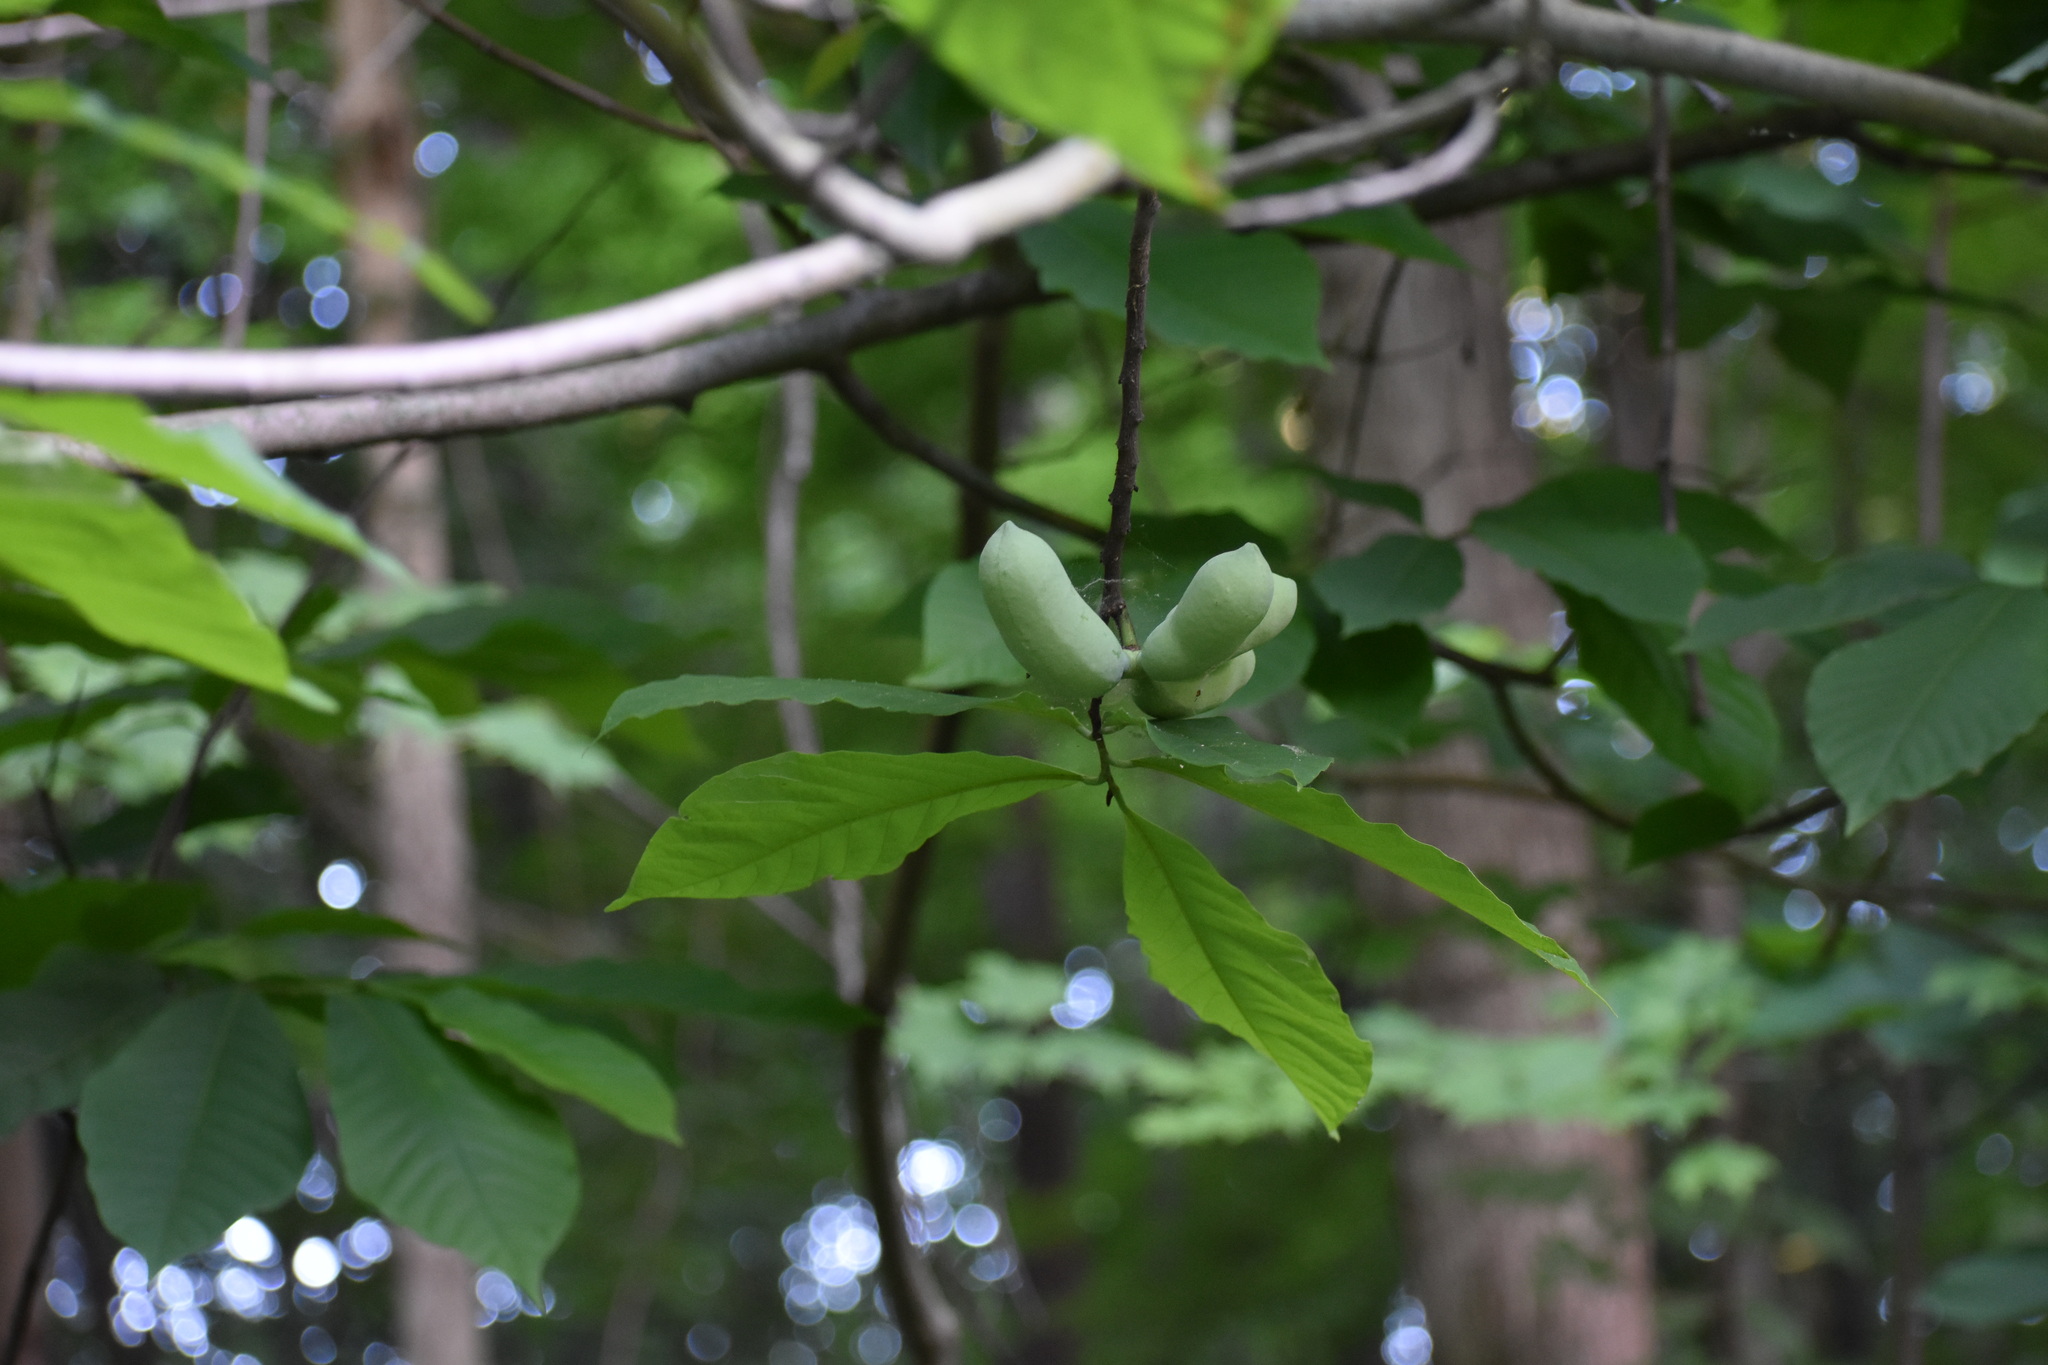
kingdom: Plantae
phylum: Tracheophyta
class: Magnoliopsida
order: Magnoliales
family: Annonaceae
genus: Asimina
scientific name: Asimina triloba
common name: Dog-banana
